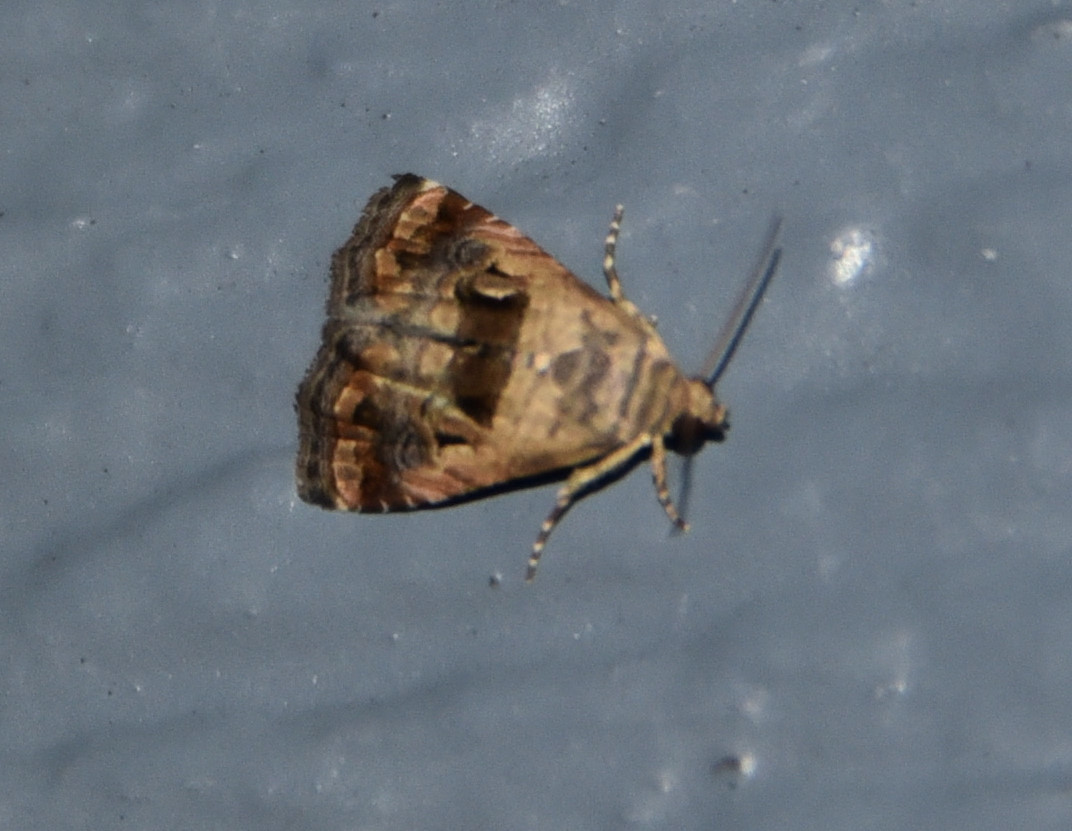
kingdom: Animalia
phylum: Arthropoda
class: Insecta
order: Lepidoptera
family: Noctuidae
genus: Tripudia
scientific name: Tripudia quadrifera
